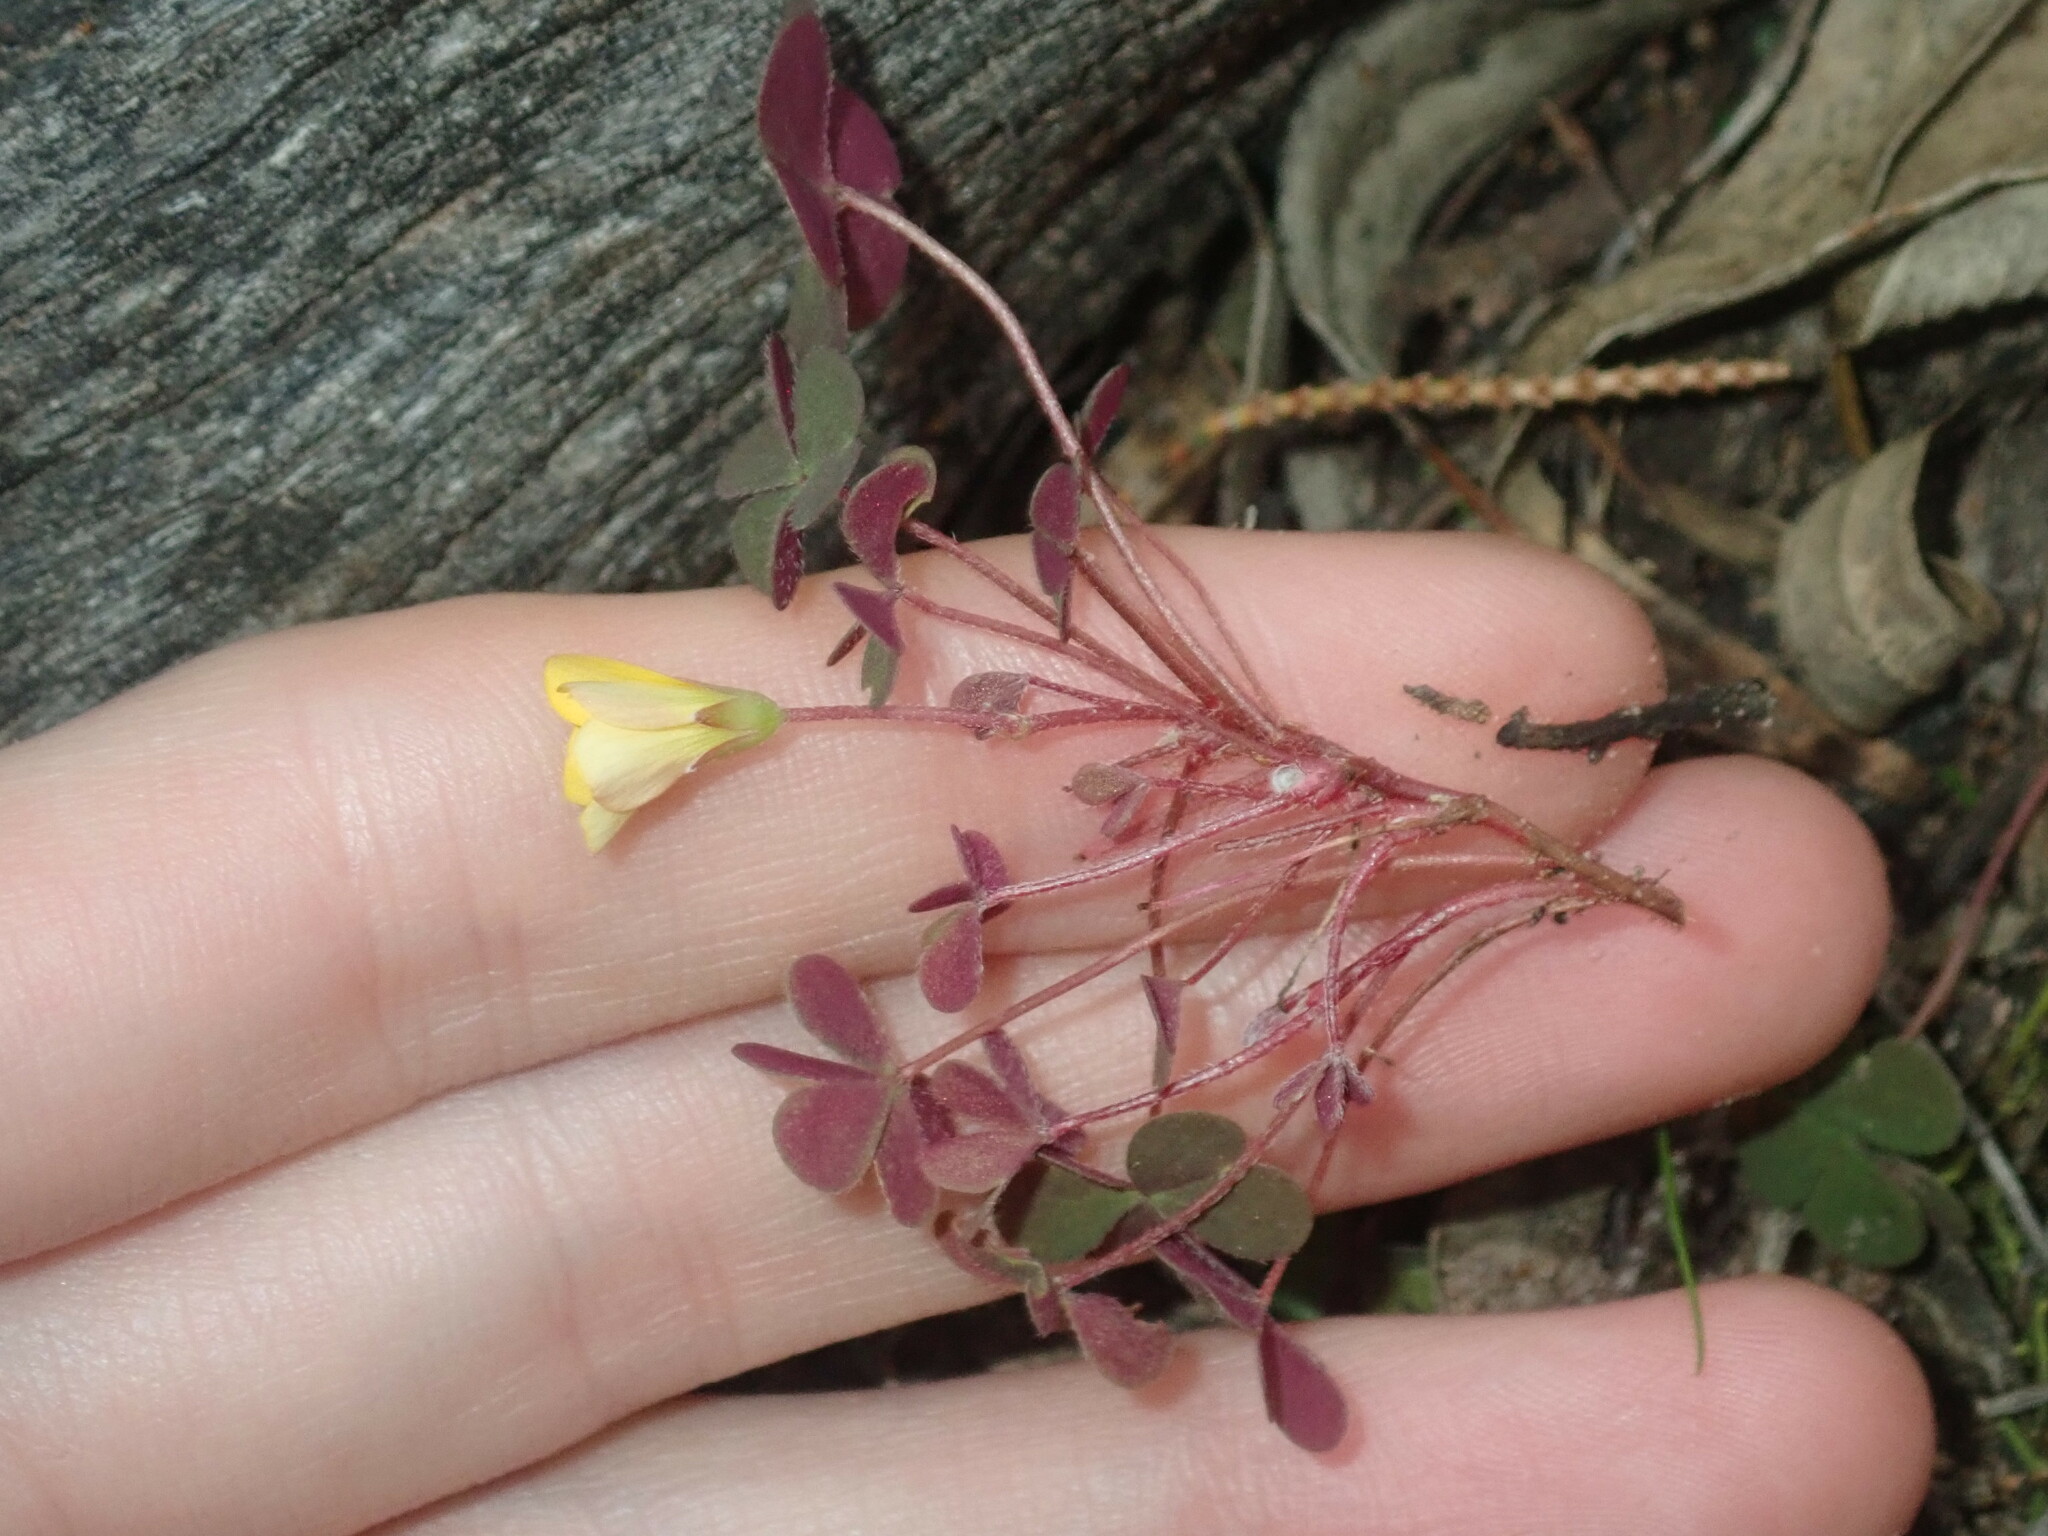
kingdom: Plantae
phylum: Tracheophyta
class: Magnoliopsida
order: Oxalidales
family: Oxalidaceae
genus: Oxalis
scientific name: Oxalis exilis
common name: Least yellow-sorrel
